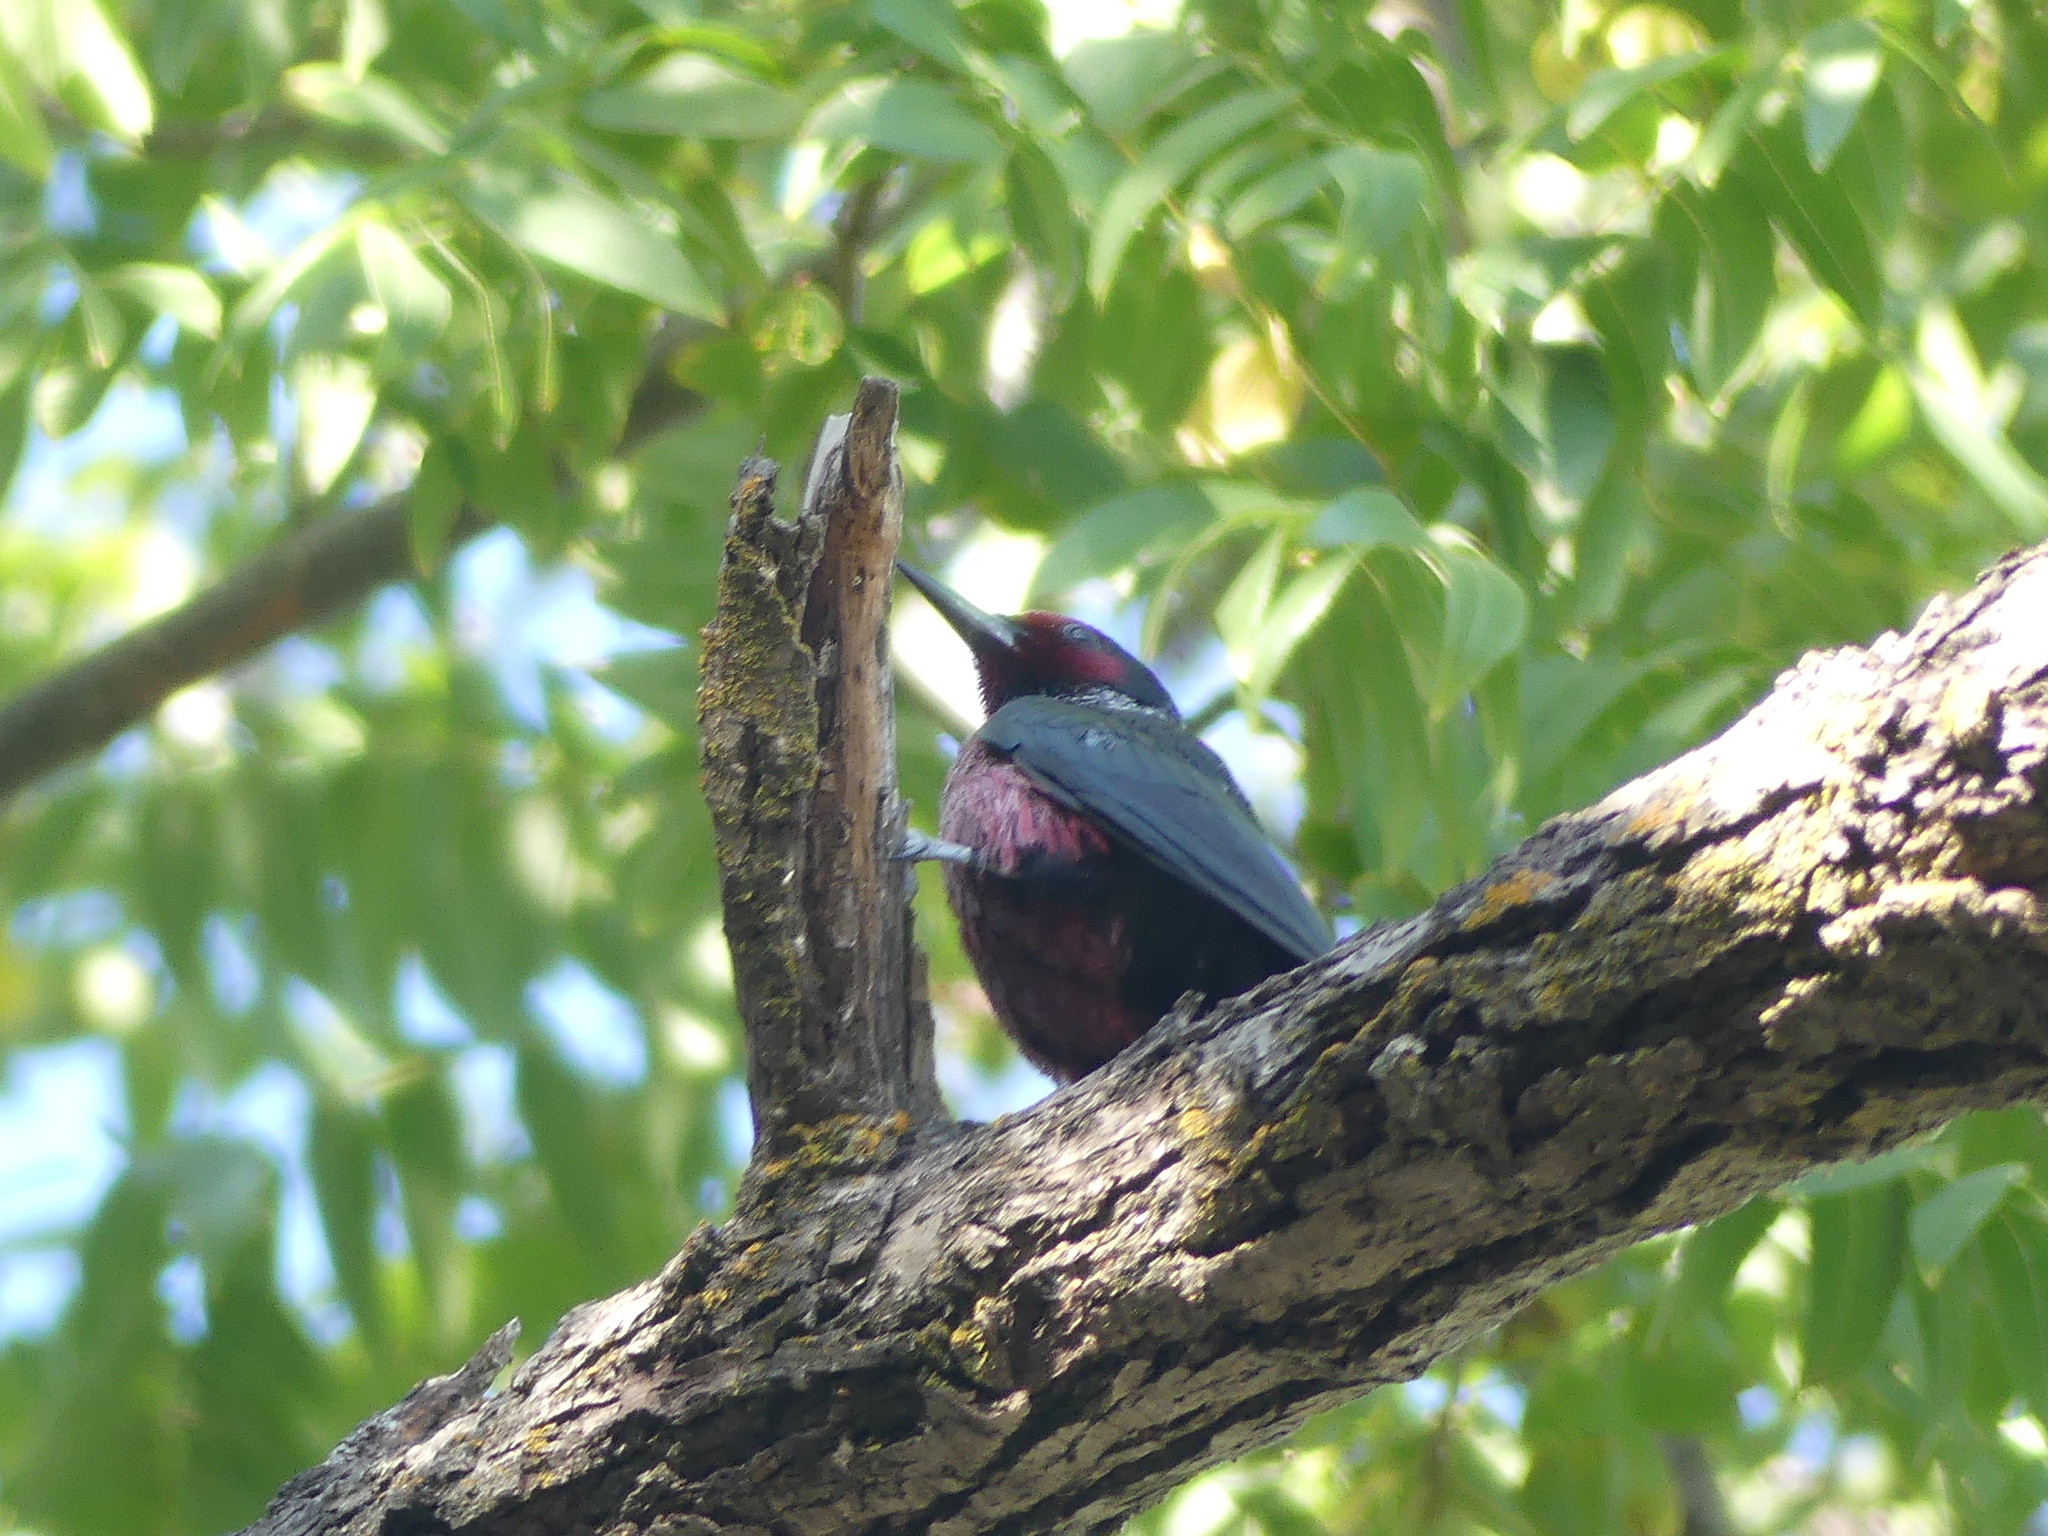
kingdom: Animalia
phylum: Chordata
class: Aves
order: Piciformes
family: Picidae
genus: Melanerpes
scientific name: Melanerpes lewis
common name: Lewis's woodpecker
